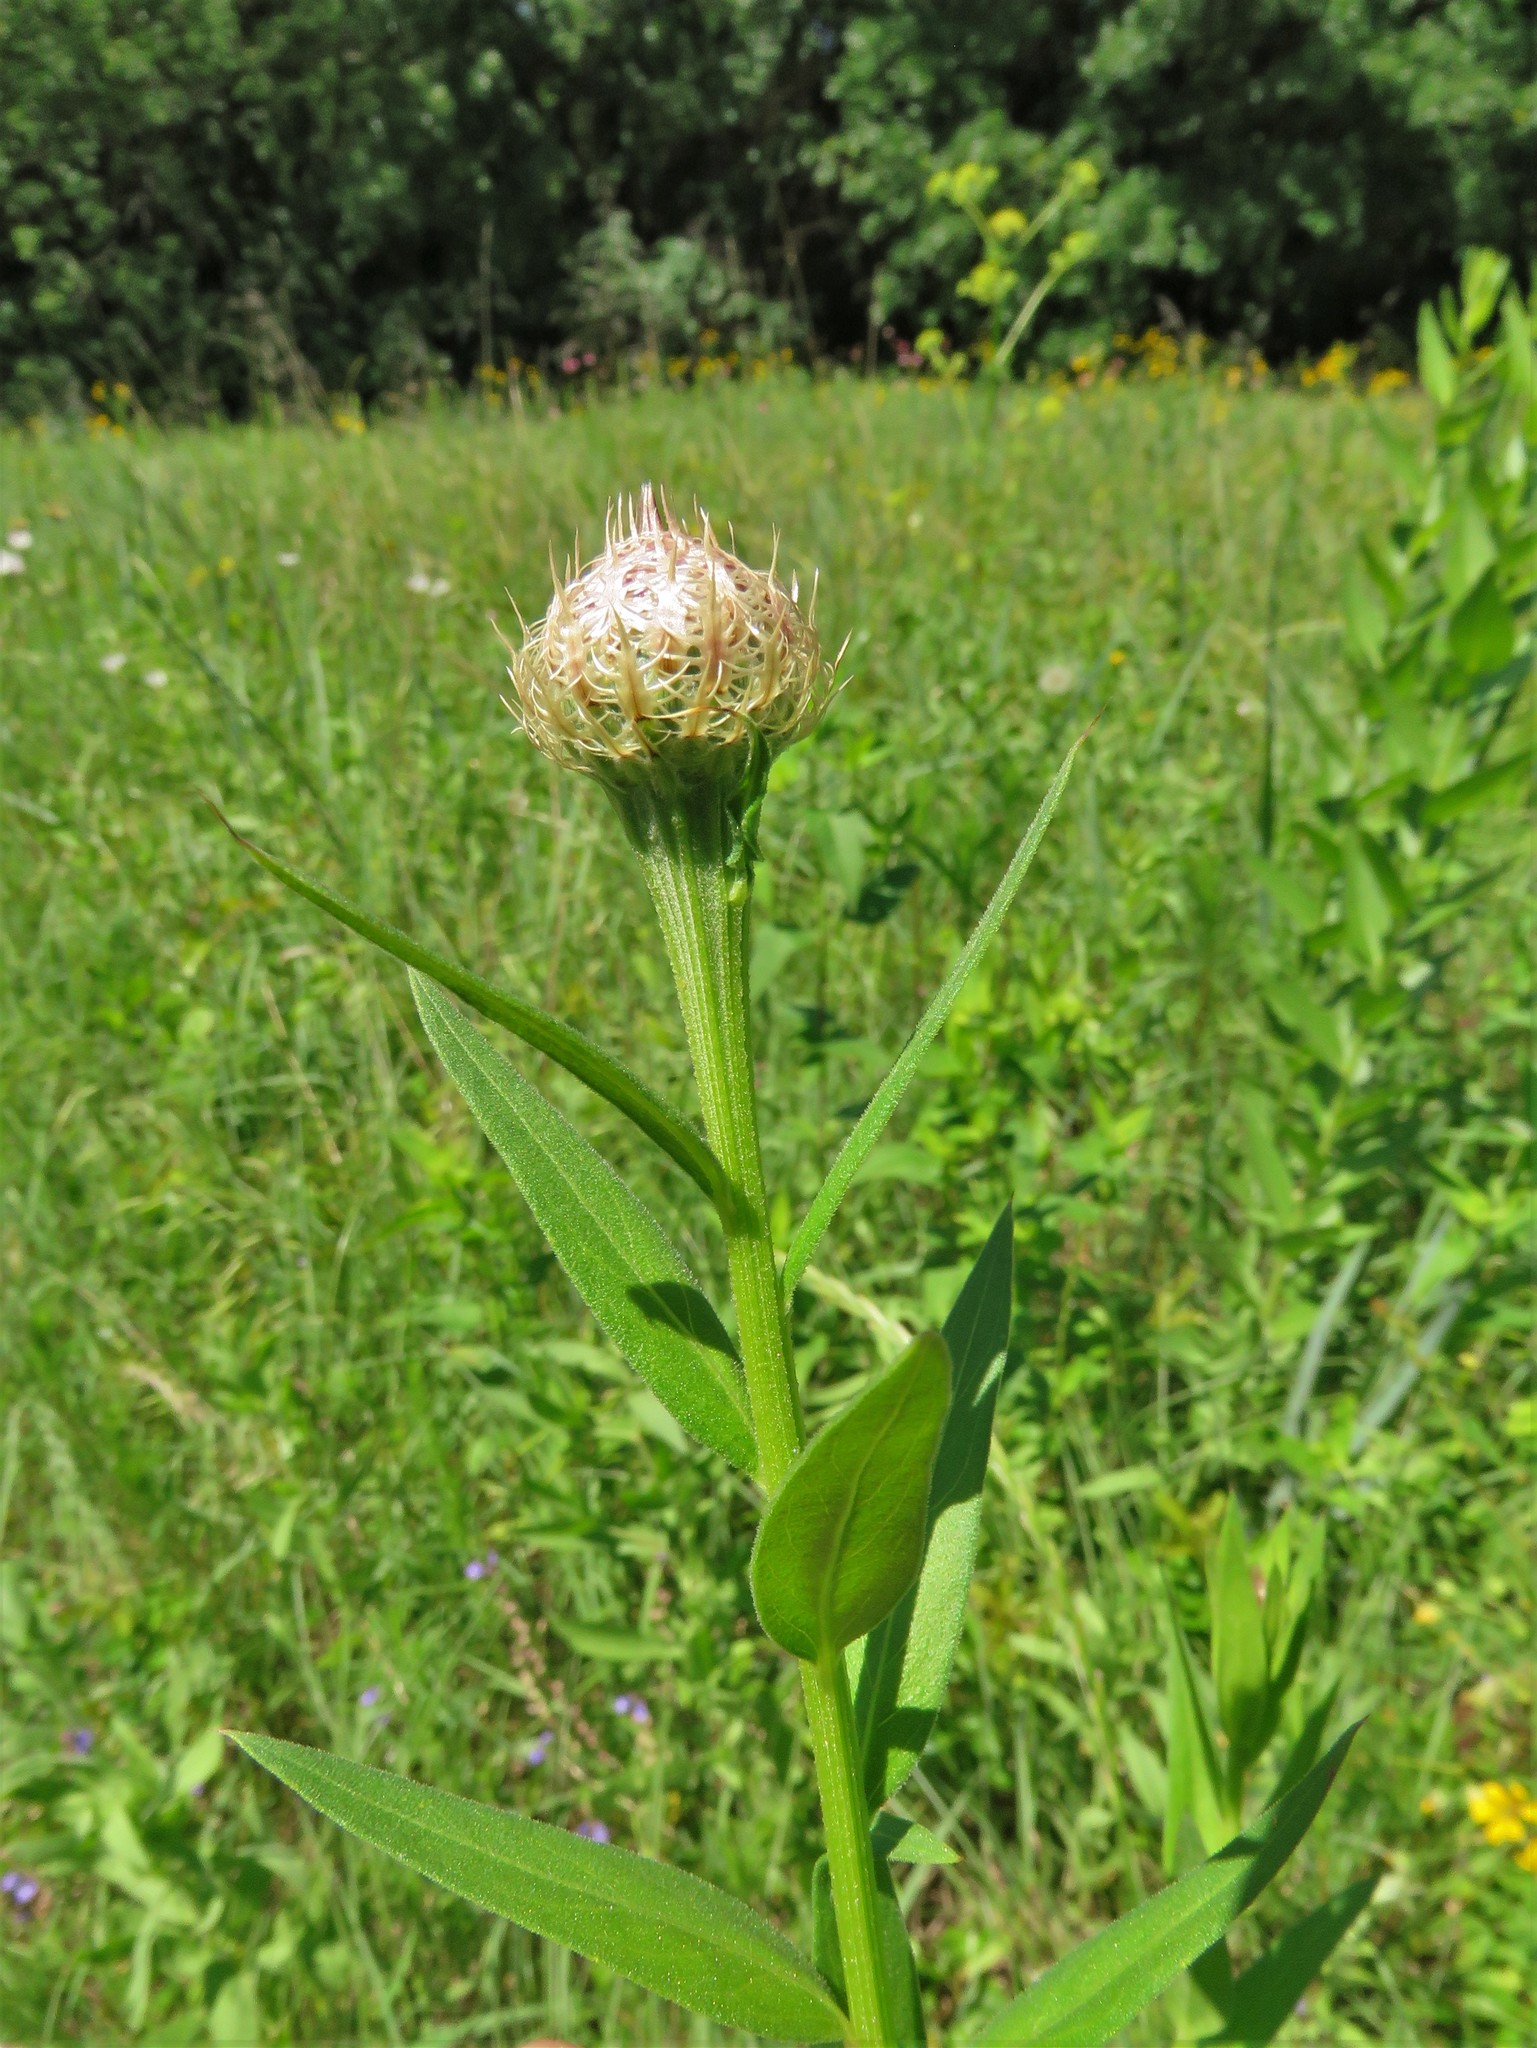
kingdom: Plantae
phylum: Tracheophyta
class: Magnoliopsida
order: Asterales
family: Asteraceae
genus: Plectocephalus
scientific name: Plectocephalus americanus
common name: American basket-flower
